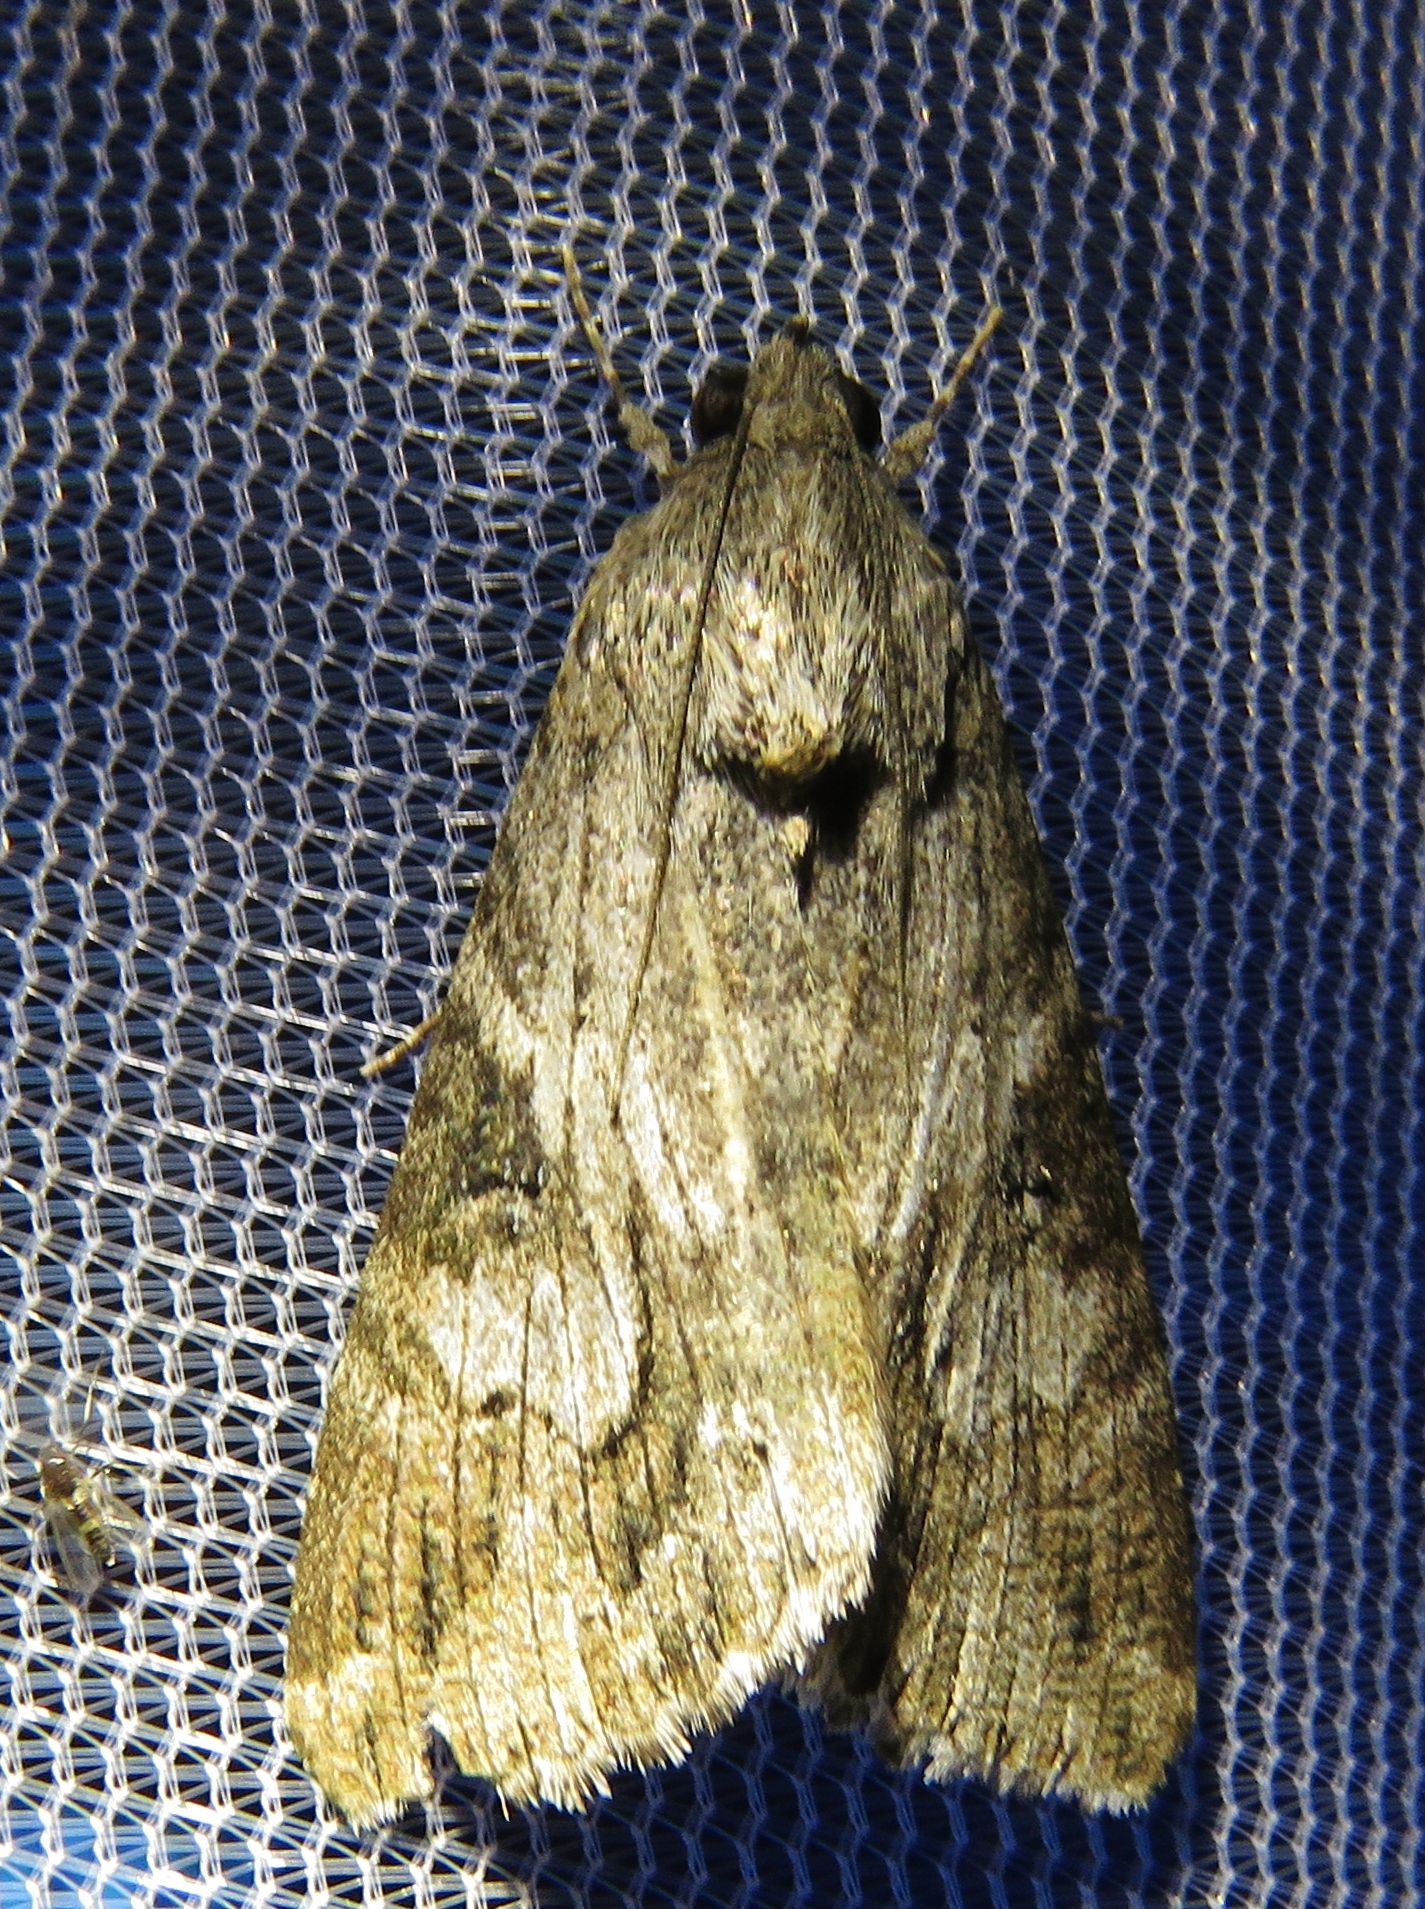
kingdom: Animalia
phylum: Arthropoda
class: Insecta
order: Lepidoptera
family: Erebidae
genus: Melipotis
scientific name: Melipotis jucunda
